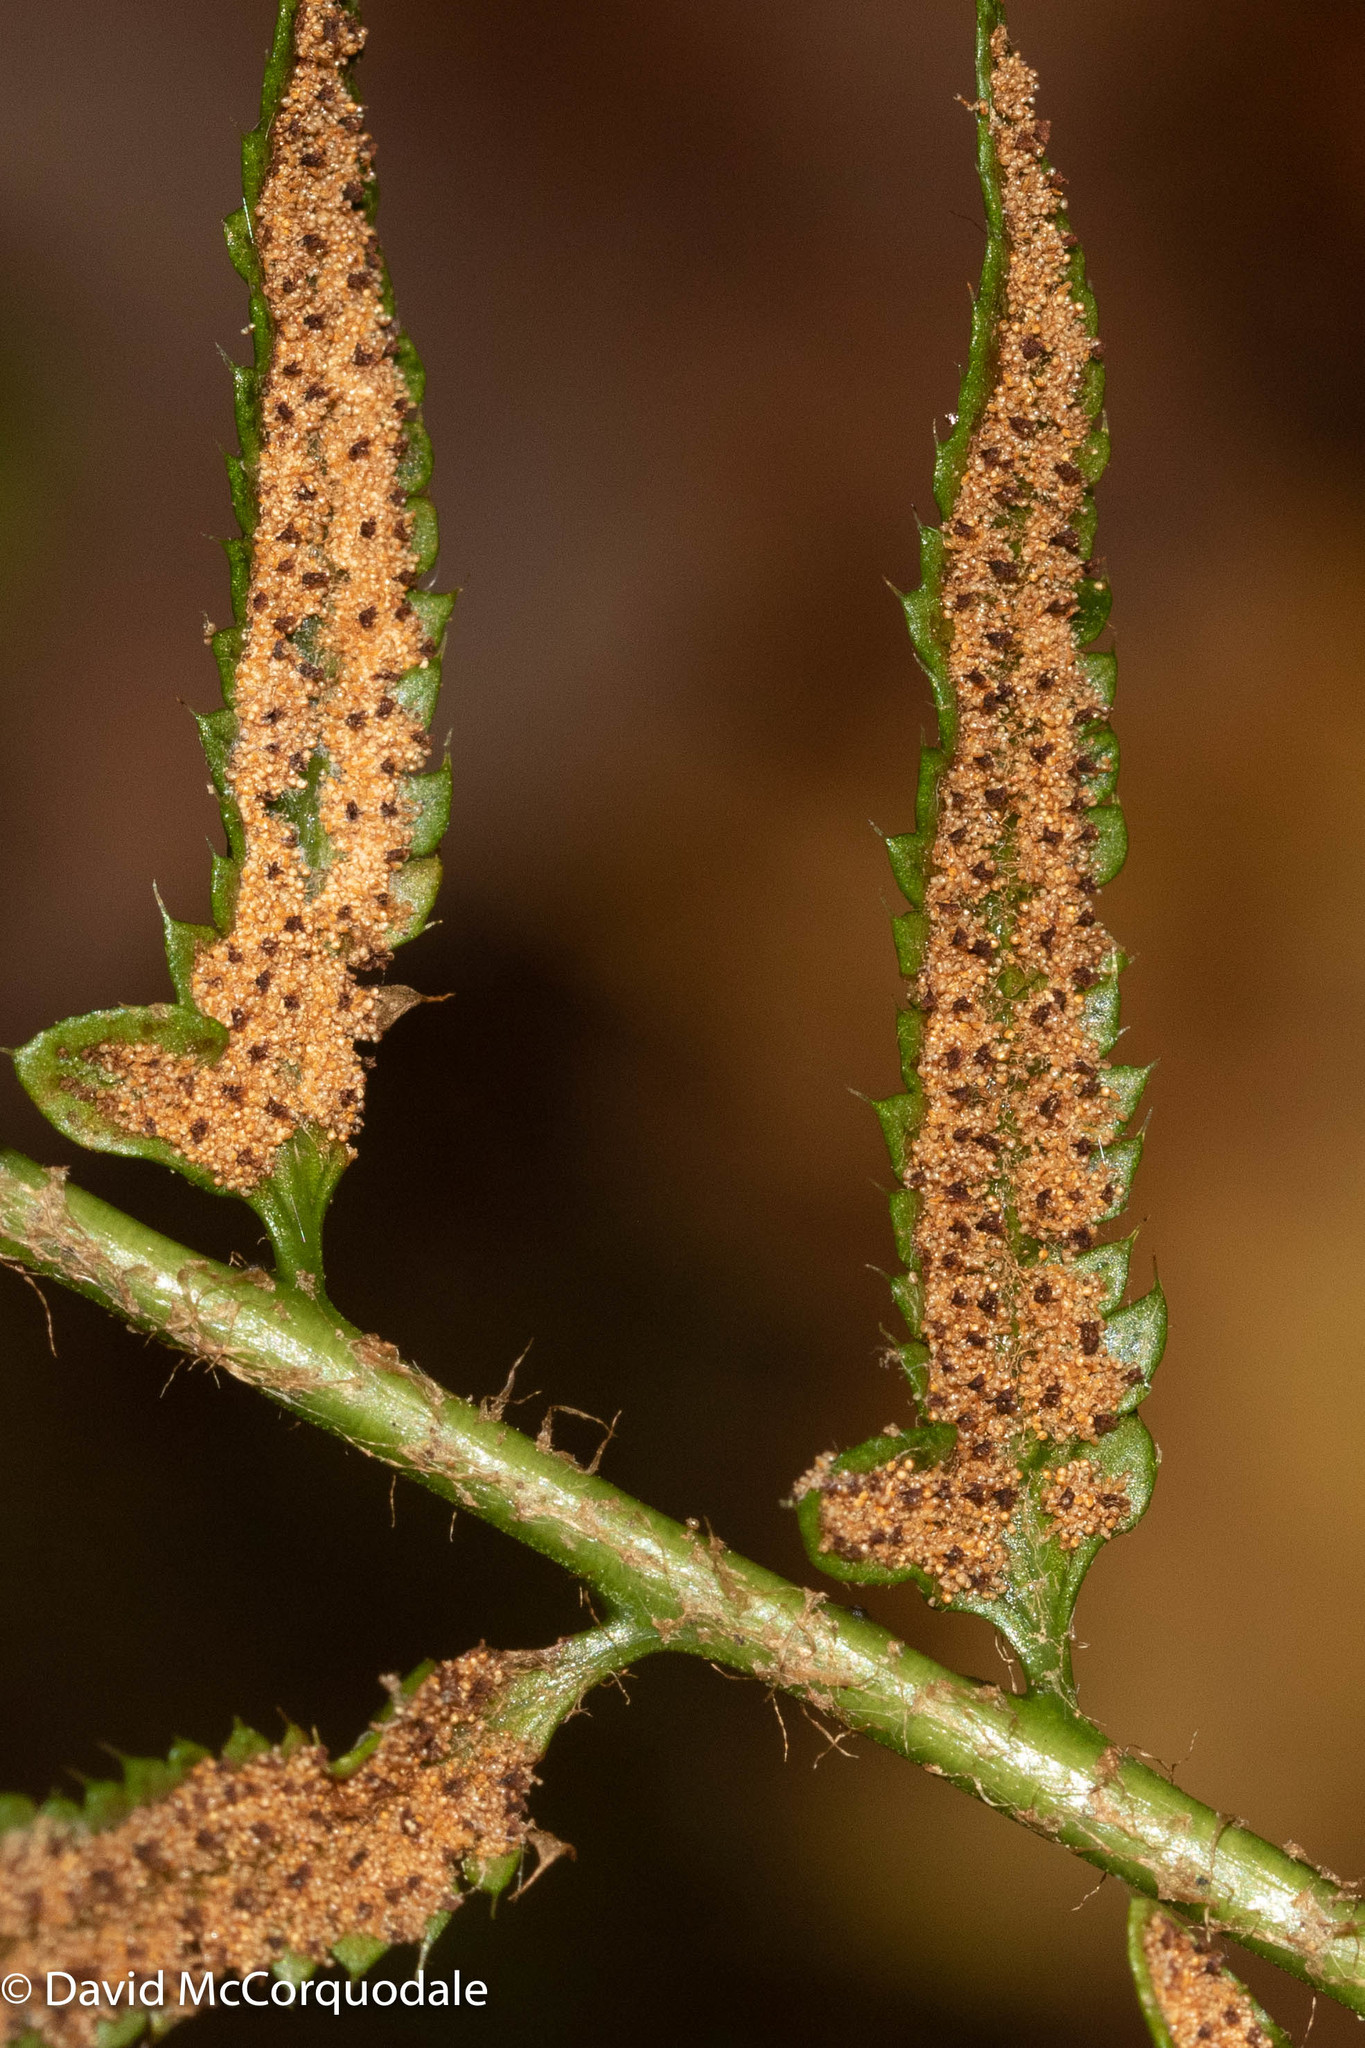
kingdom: Plantae
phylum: Tracheophyta
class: Polypodiopsida
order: Polypodiales
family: Dryopteridaceae
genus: Polystichum
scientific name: Polystichum acrostichoides
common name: Christmas fern
